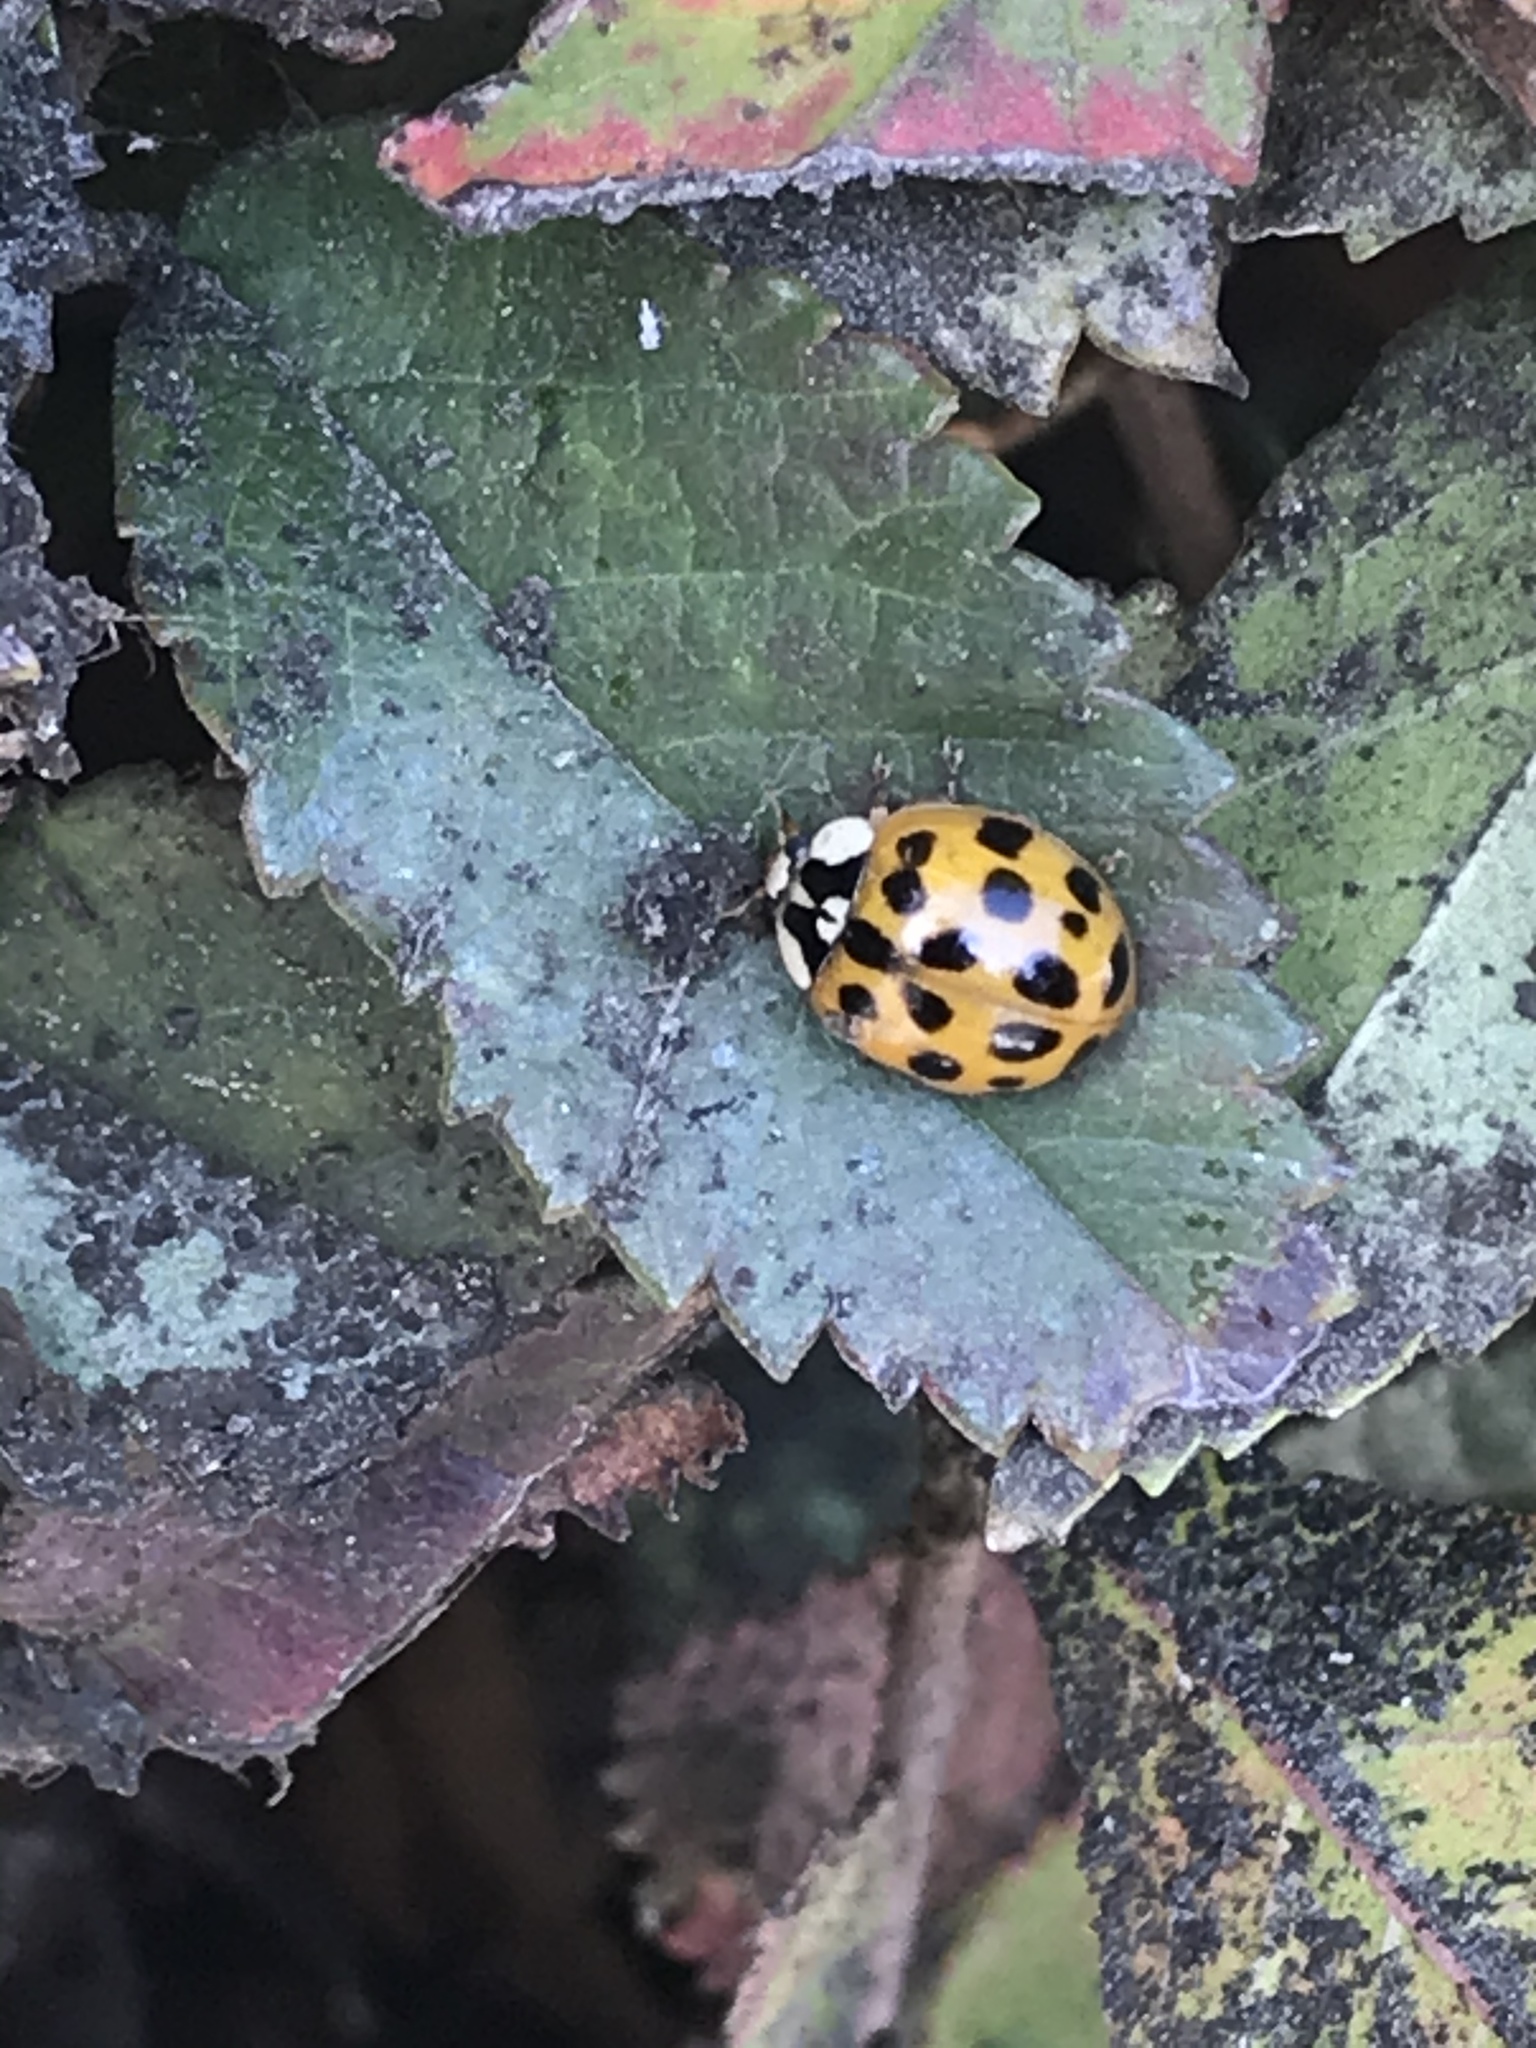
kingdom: Animalia
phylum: Arthropoda
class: Insecta
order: Coleoptera
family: Coccinellidae
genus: Harmonia
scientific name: Harmonia axyridis
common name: Harlequin ladybird
